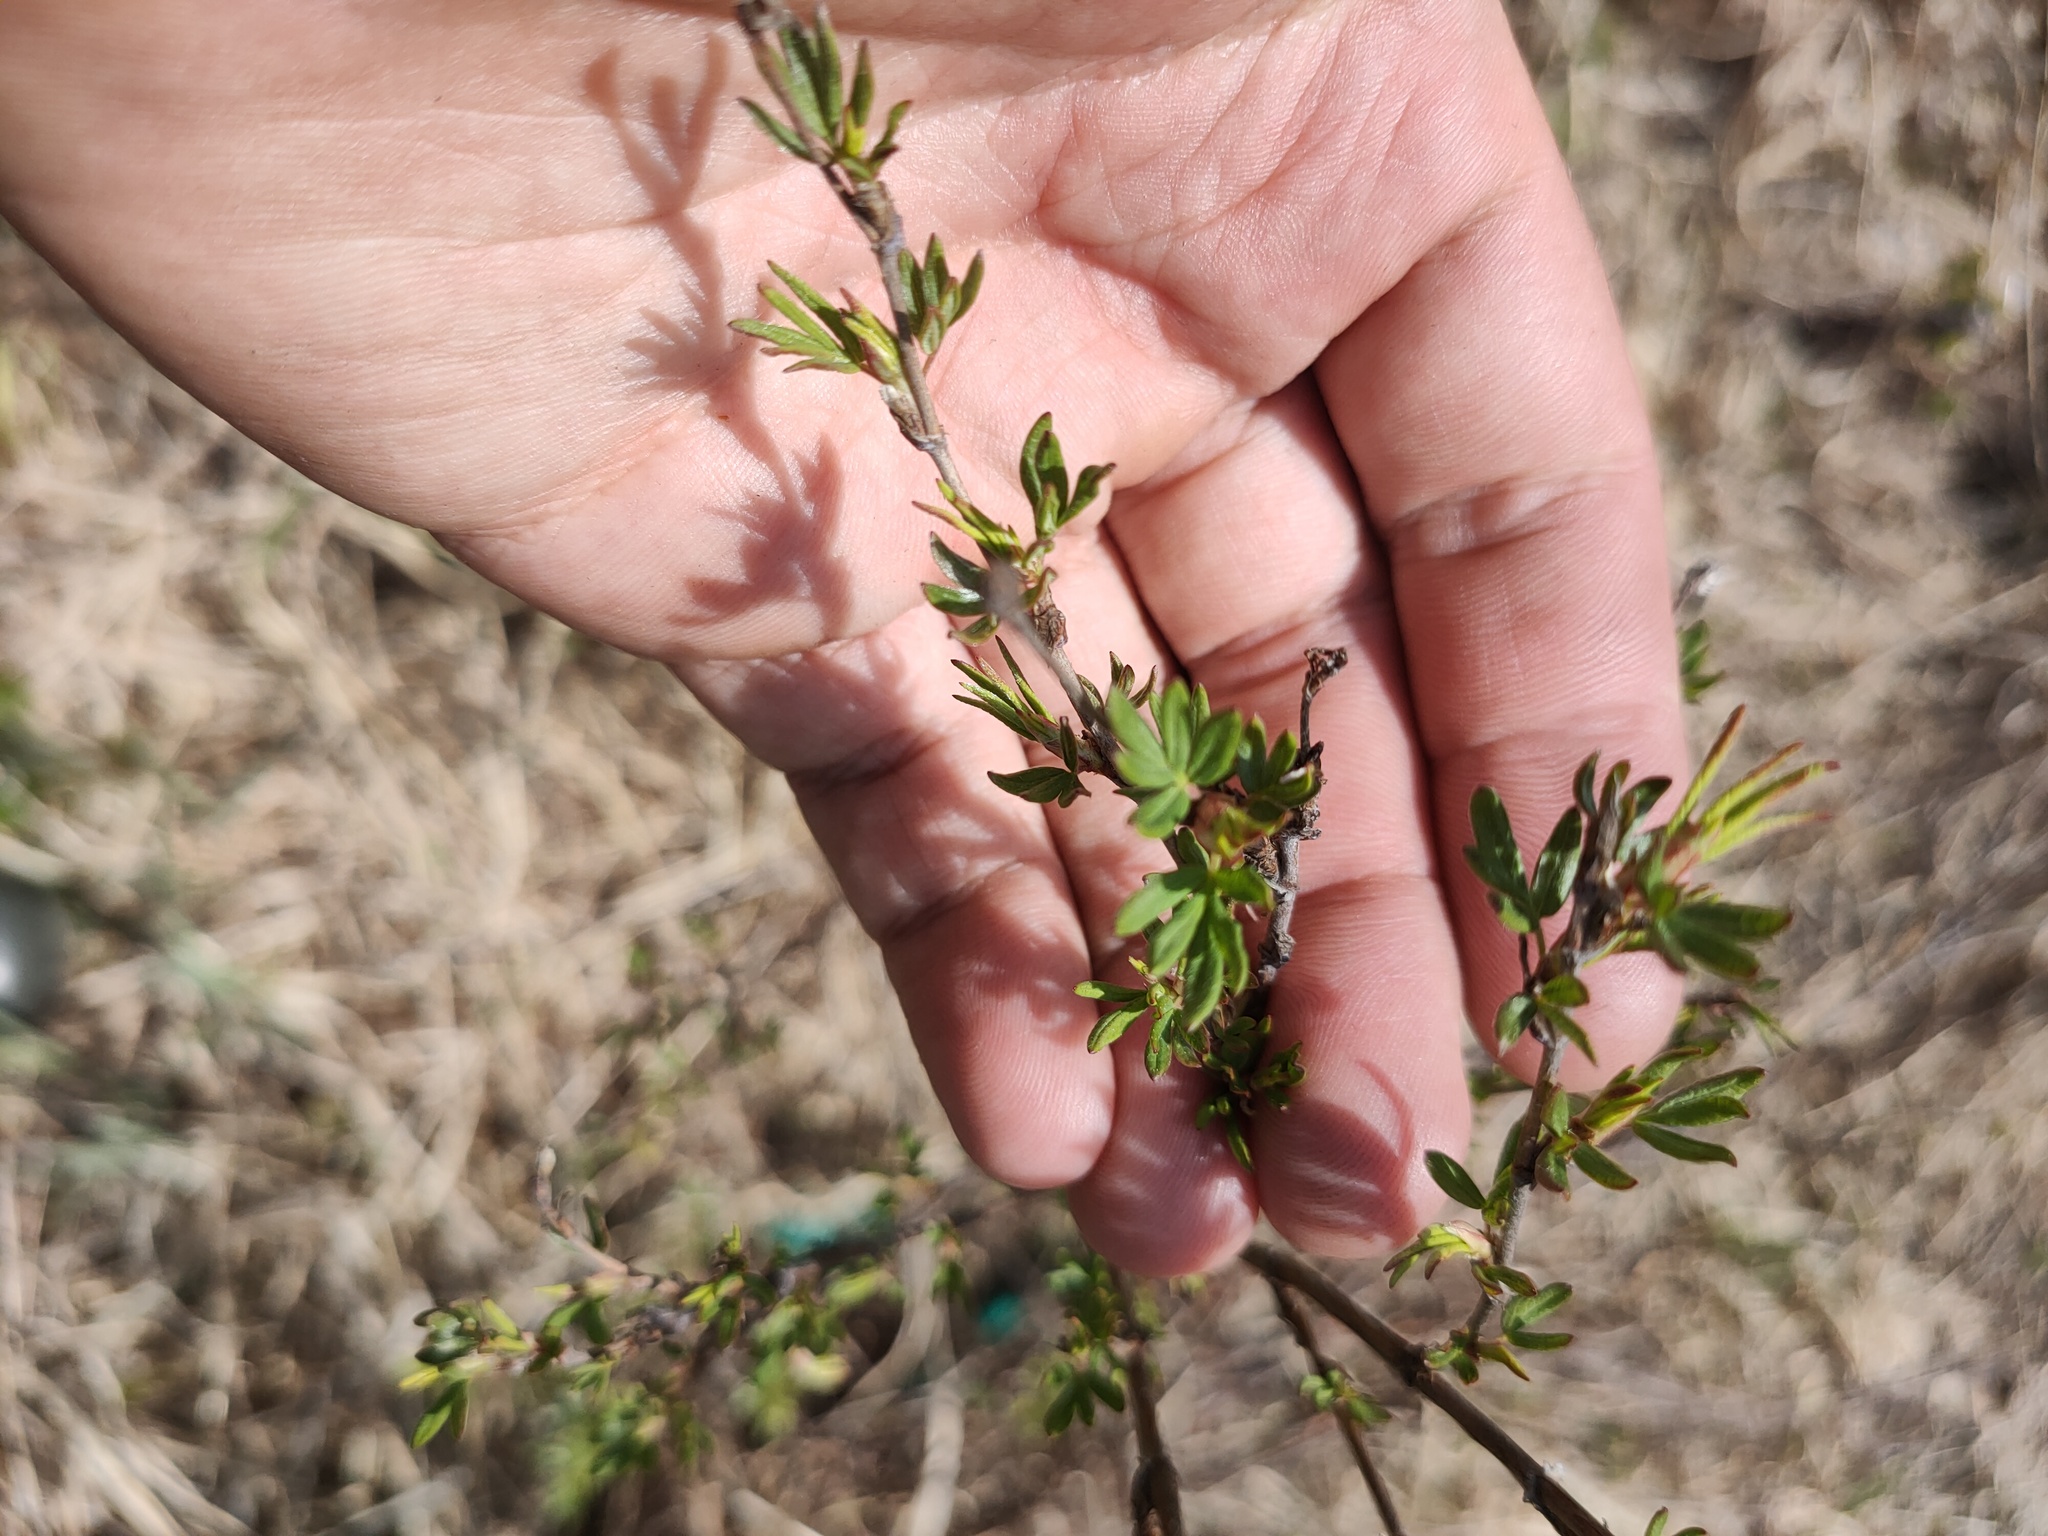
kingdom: Plantae
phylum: Tracheophyta
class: Magnoliopsida
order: Rosales
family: Rosaceae
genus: Dasiphora
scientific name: Dasiphora fruticosa
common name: Shrubby cinquefoil
